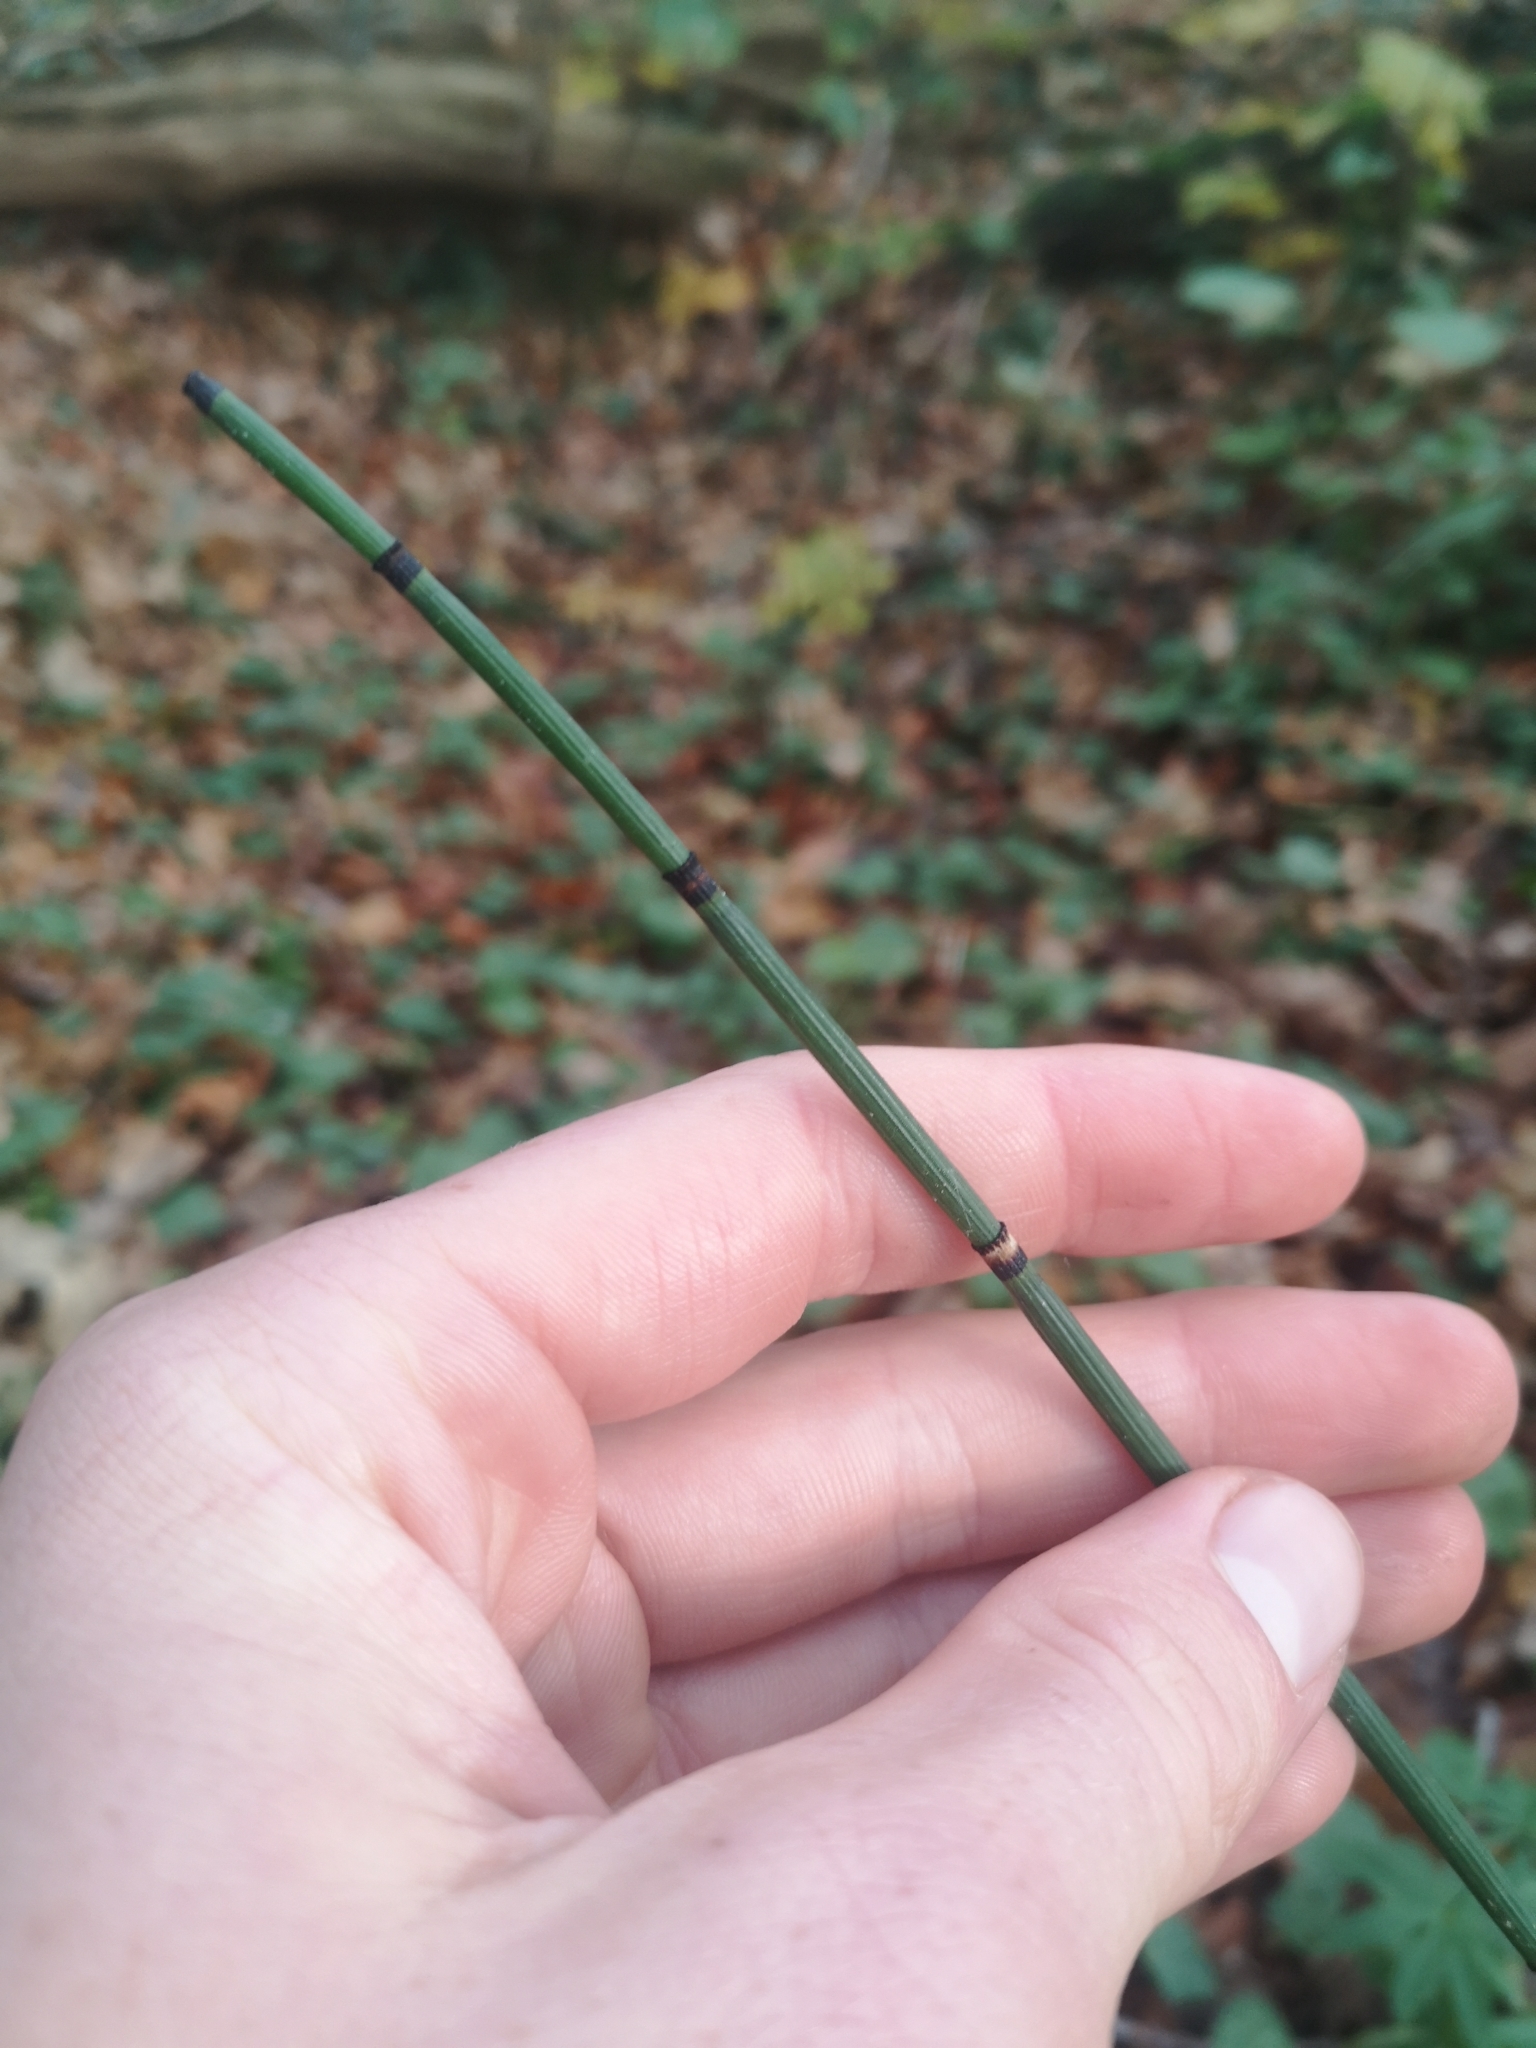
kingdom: Plantae
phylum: Tracheophyta
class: Polypodiopsida
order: Equisetales
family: Equisetaceae
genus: Equisetum
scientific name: Equisetum hyemale
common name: Rough horsetail
